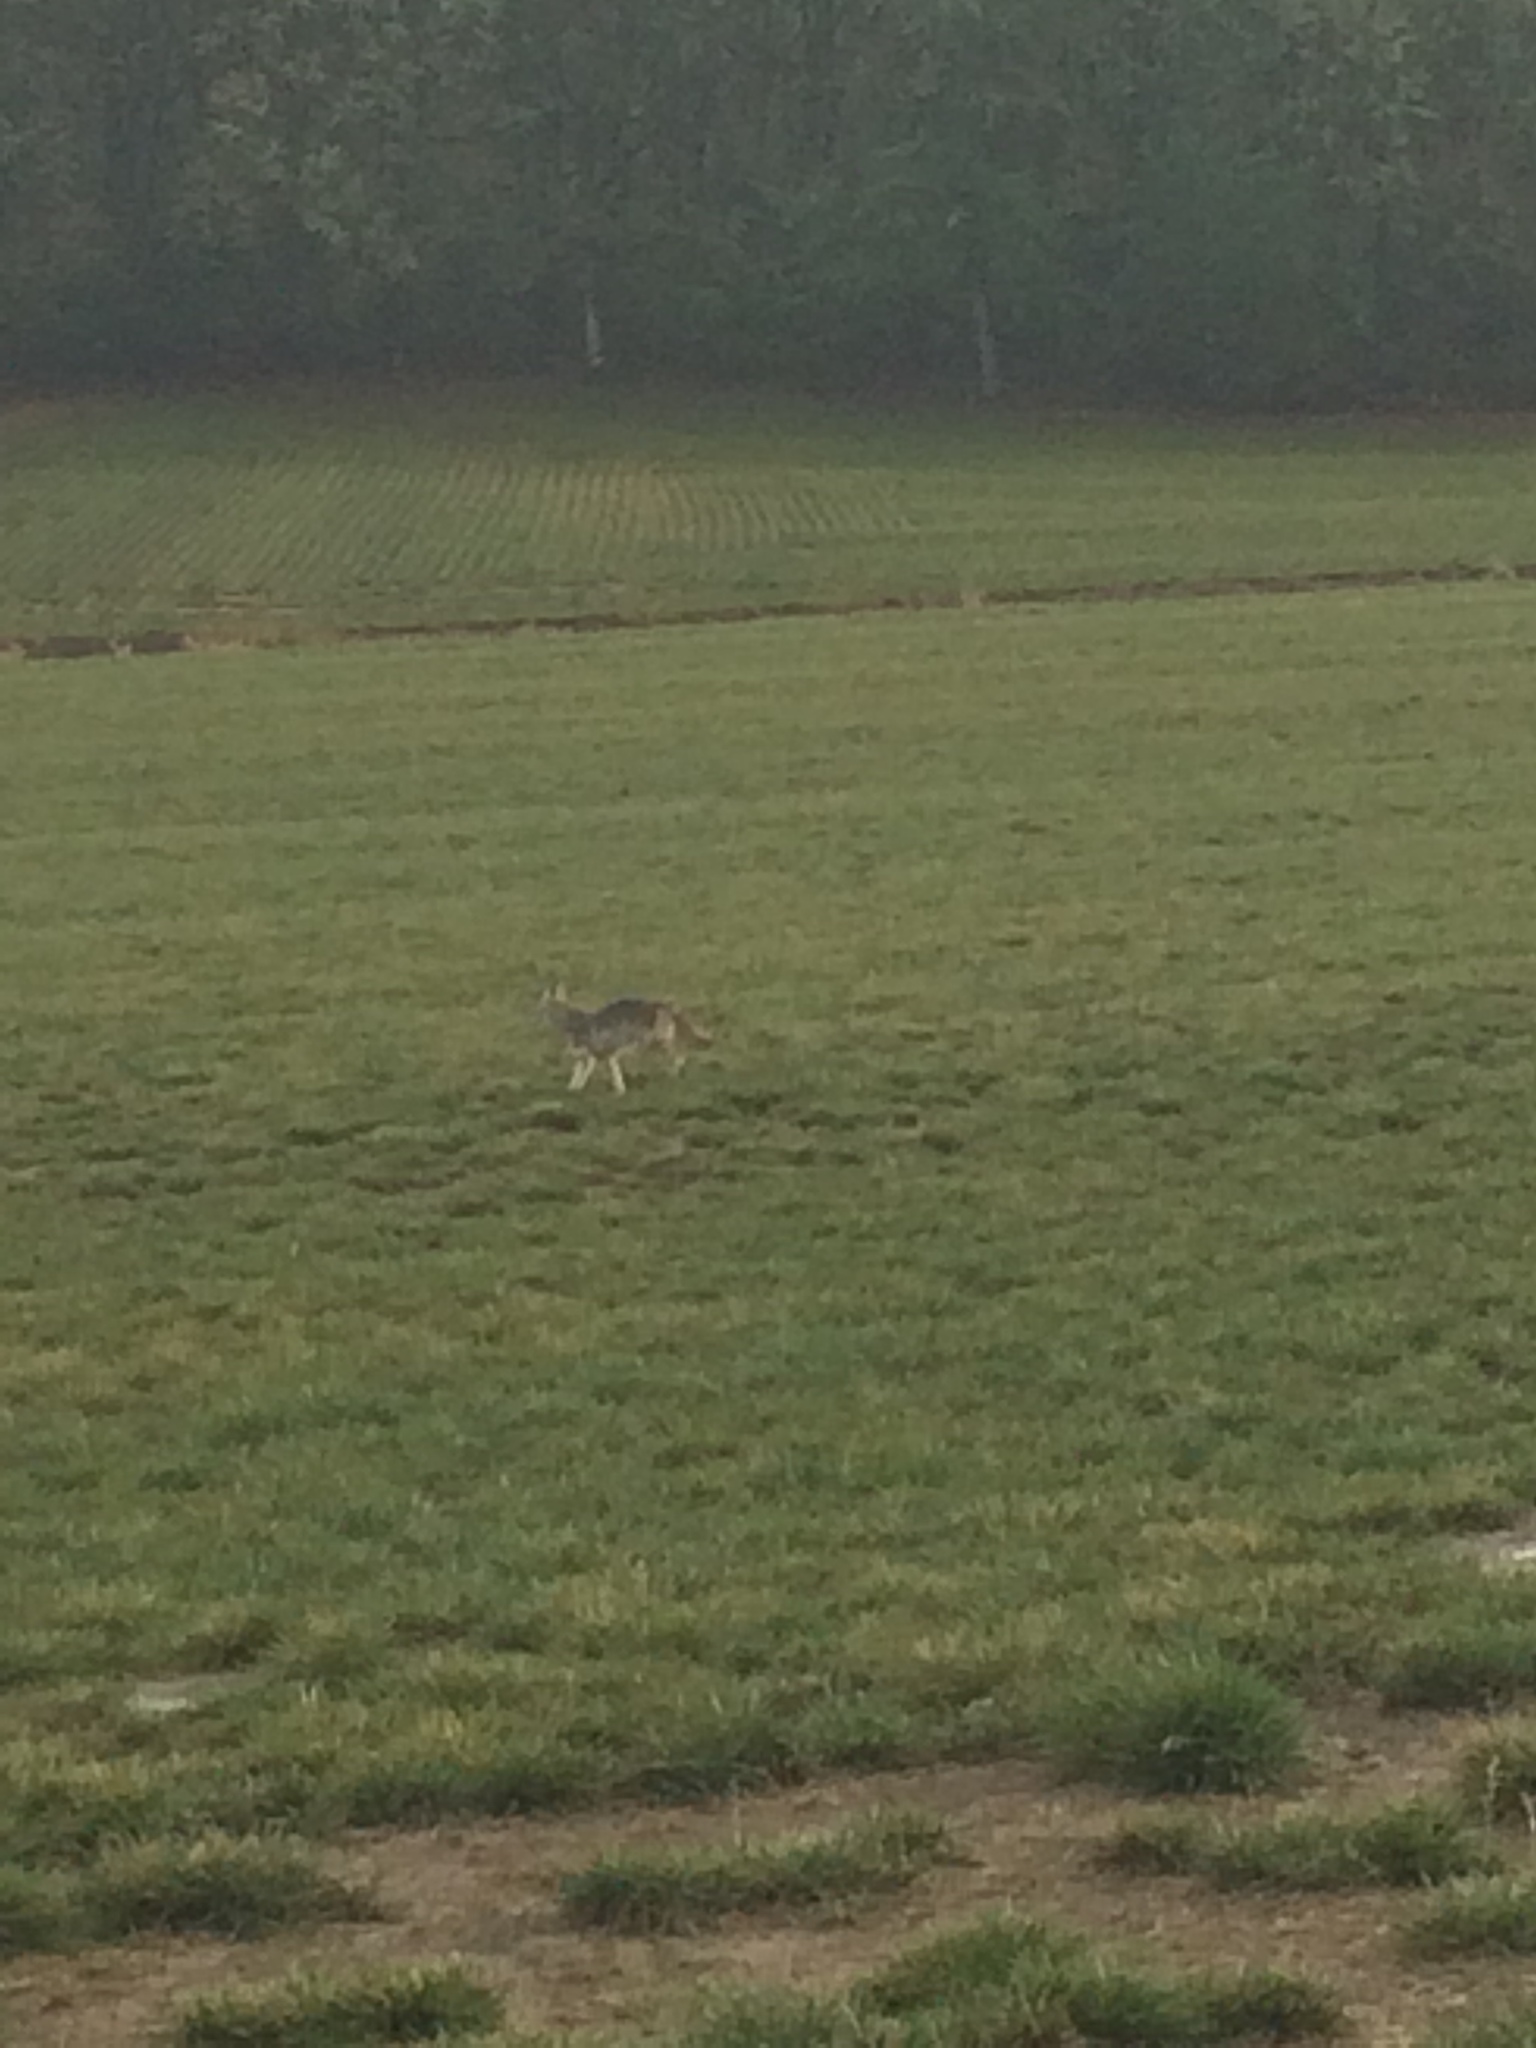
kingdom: Animalia
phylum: Chordata
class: Mammalia
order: Carnivora
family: Canidae
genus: Canis
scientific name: Canis latrans
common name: Coyote
